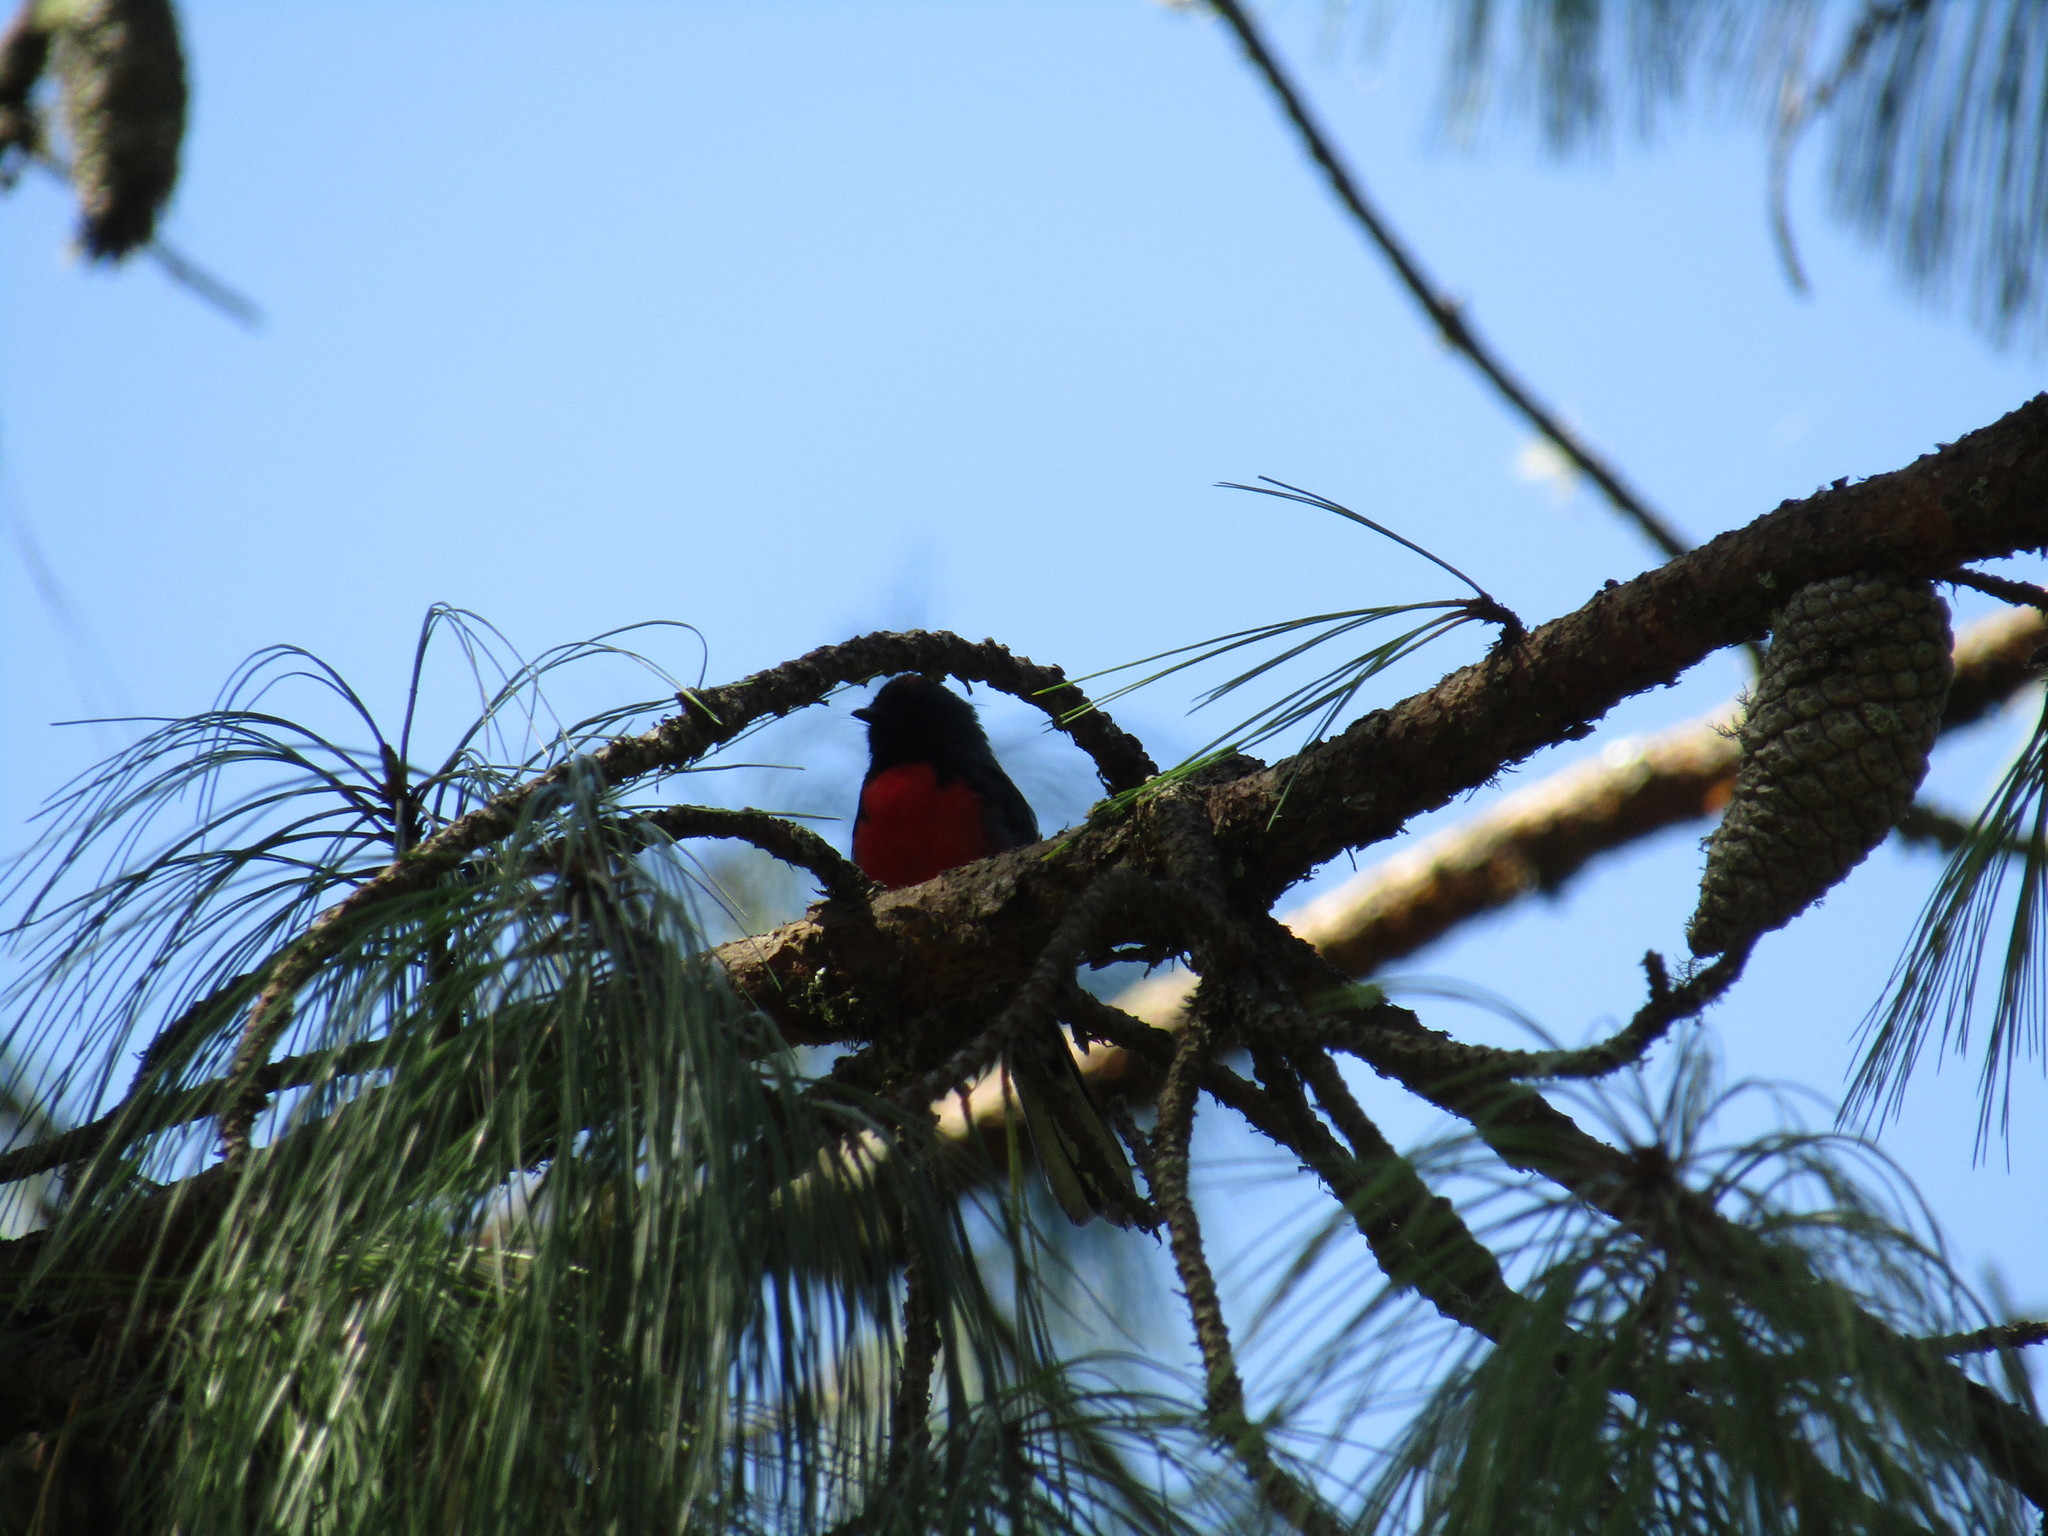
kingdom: Animalia
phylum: Chordata
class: Aves
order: Passeriformes
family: Parulidae
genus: Myioborus
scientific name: Myioborus miniatus
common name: Slate-throated redstart
